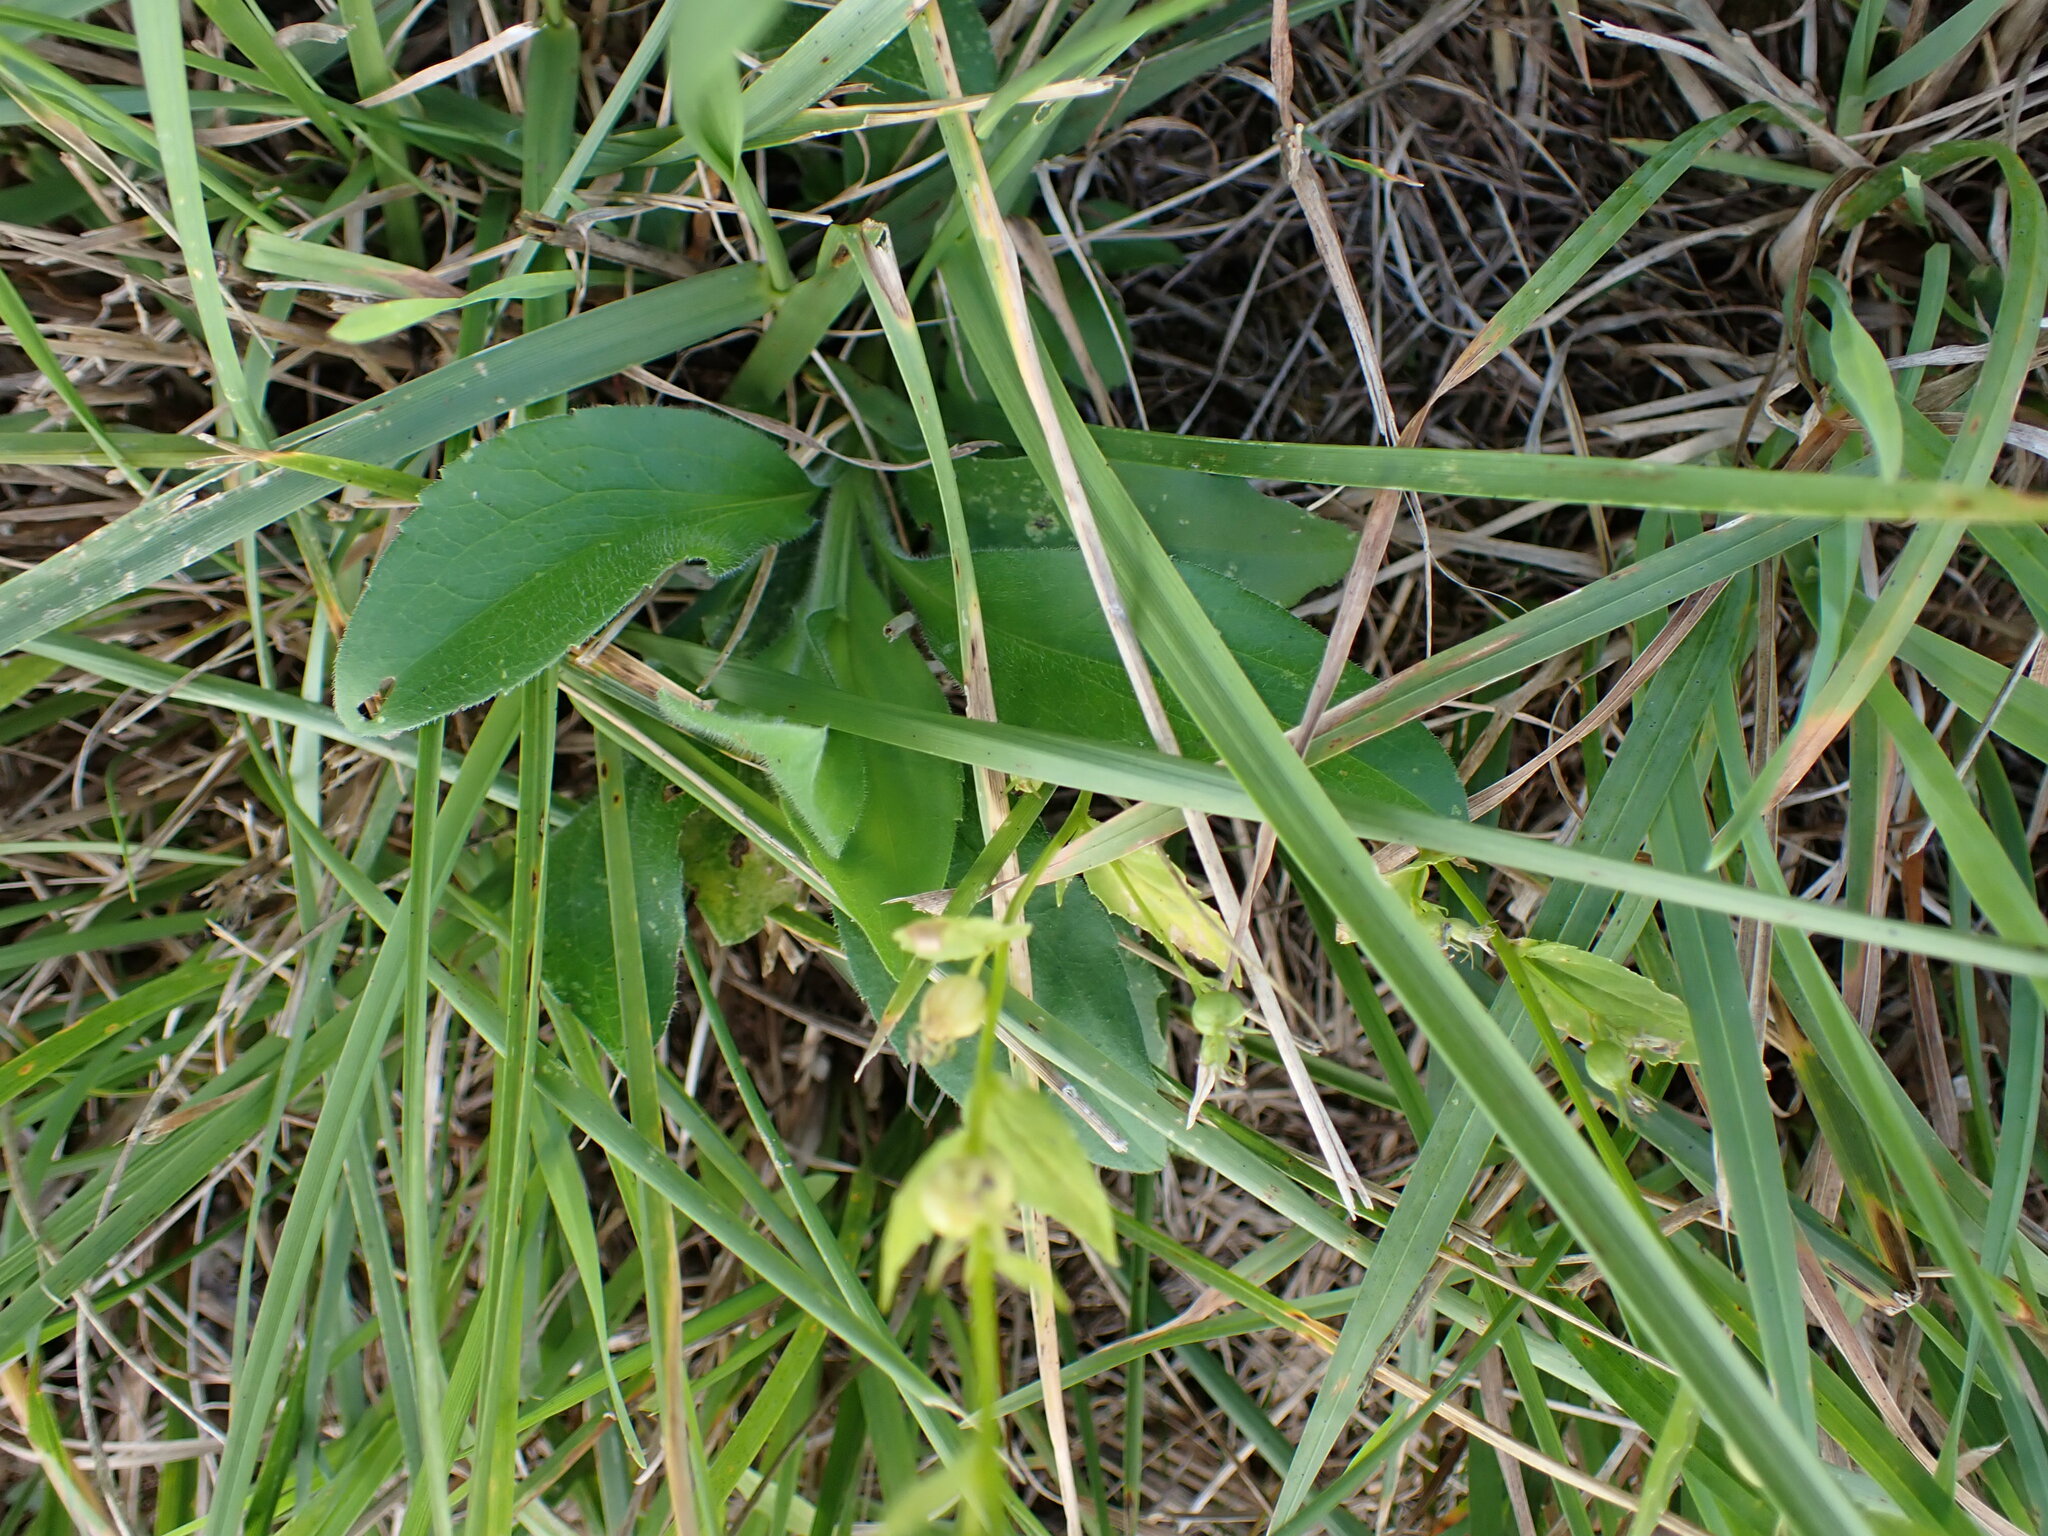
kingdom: Plantae
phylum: Tracheophyta
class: Magnoliopsida
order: Asterales
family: Campanulaceae
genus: Lobelia
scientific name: Lobelia inflata
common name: Indian tobacco
